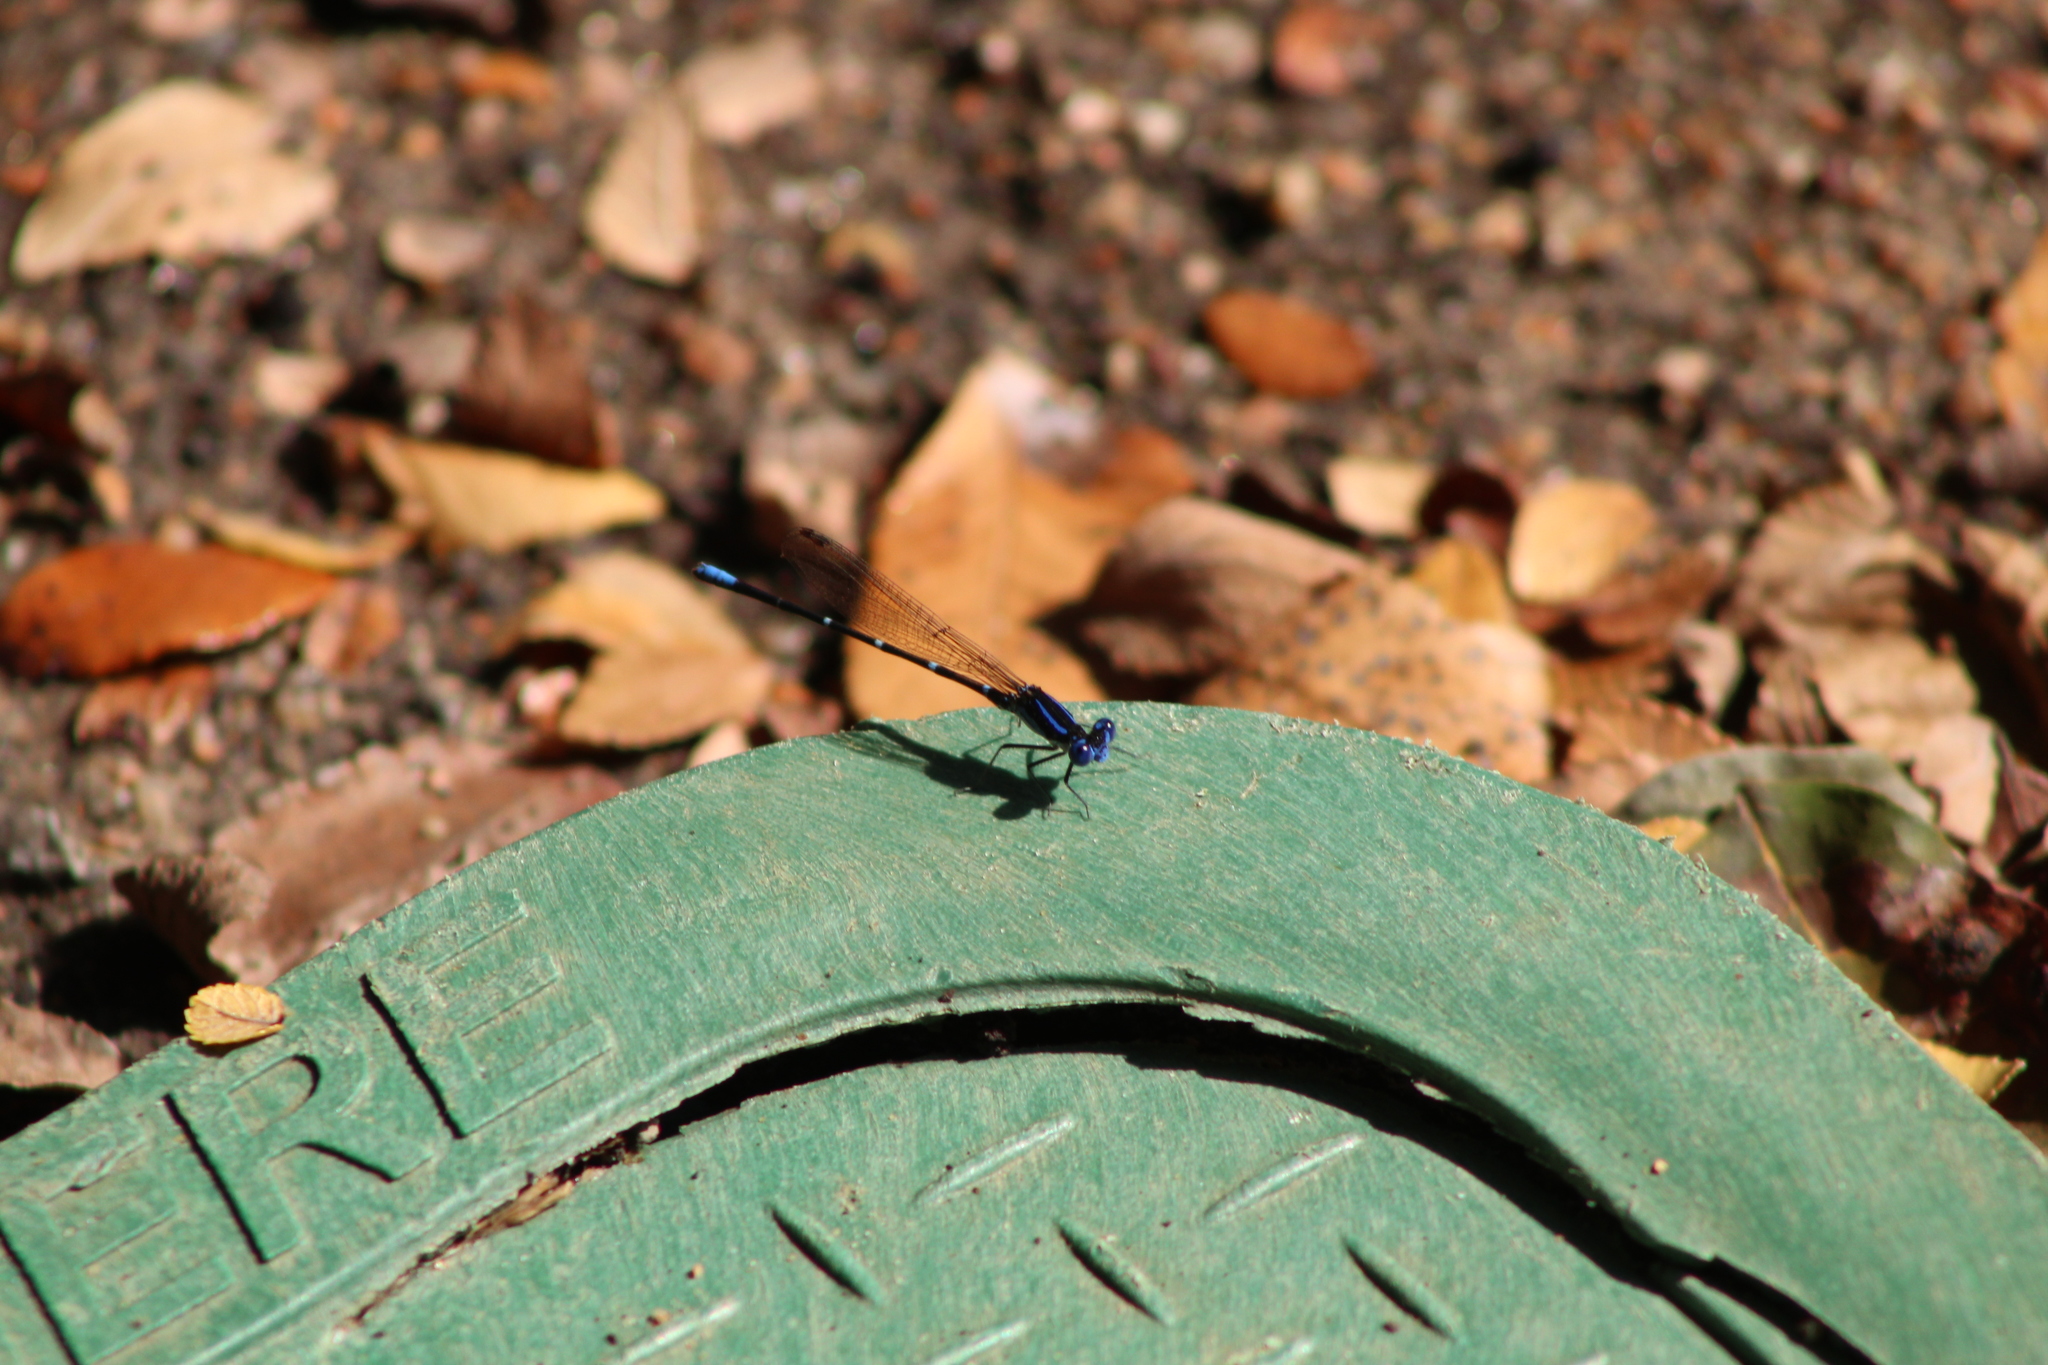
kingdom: Animalia
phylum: Arthropoda
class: Insecta
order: Odonata
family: Coenagrionidae
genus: Argia
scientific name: Argia sedula
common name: Blue-ringed dancer
